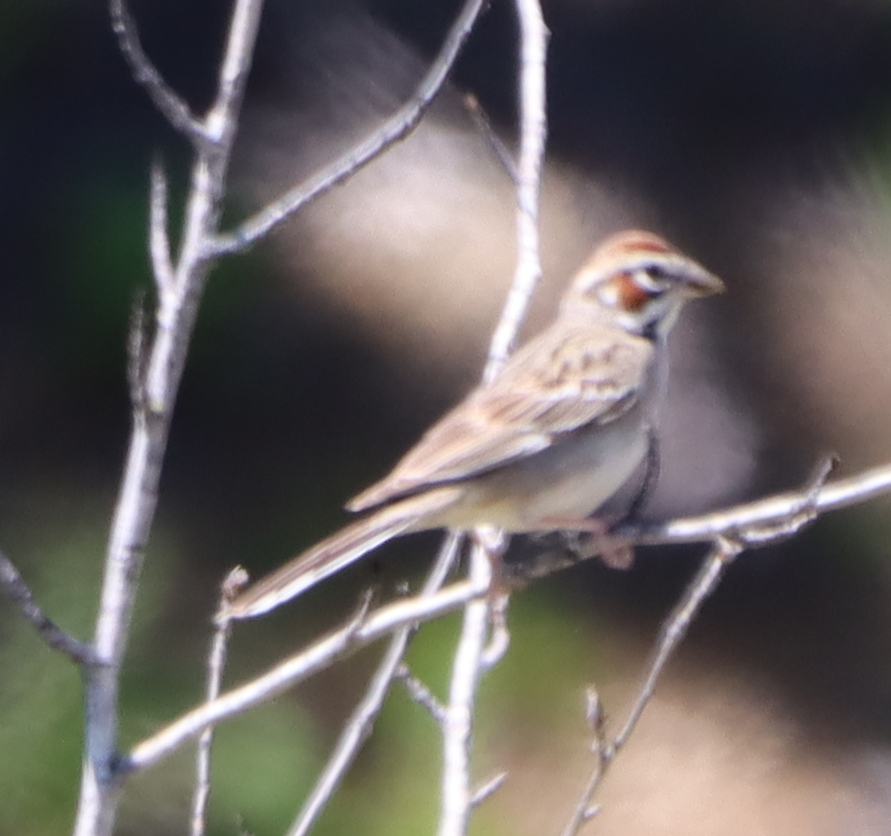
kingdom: Animalia
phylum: Chordata
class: Aves
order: Passeriformes
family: Passerellidae
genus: Chondestes
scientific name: Chondestes grammacus
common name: Lark sparrow
